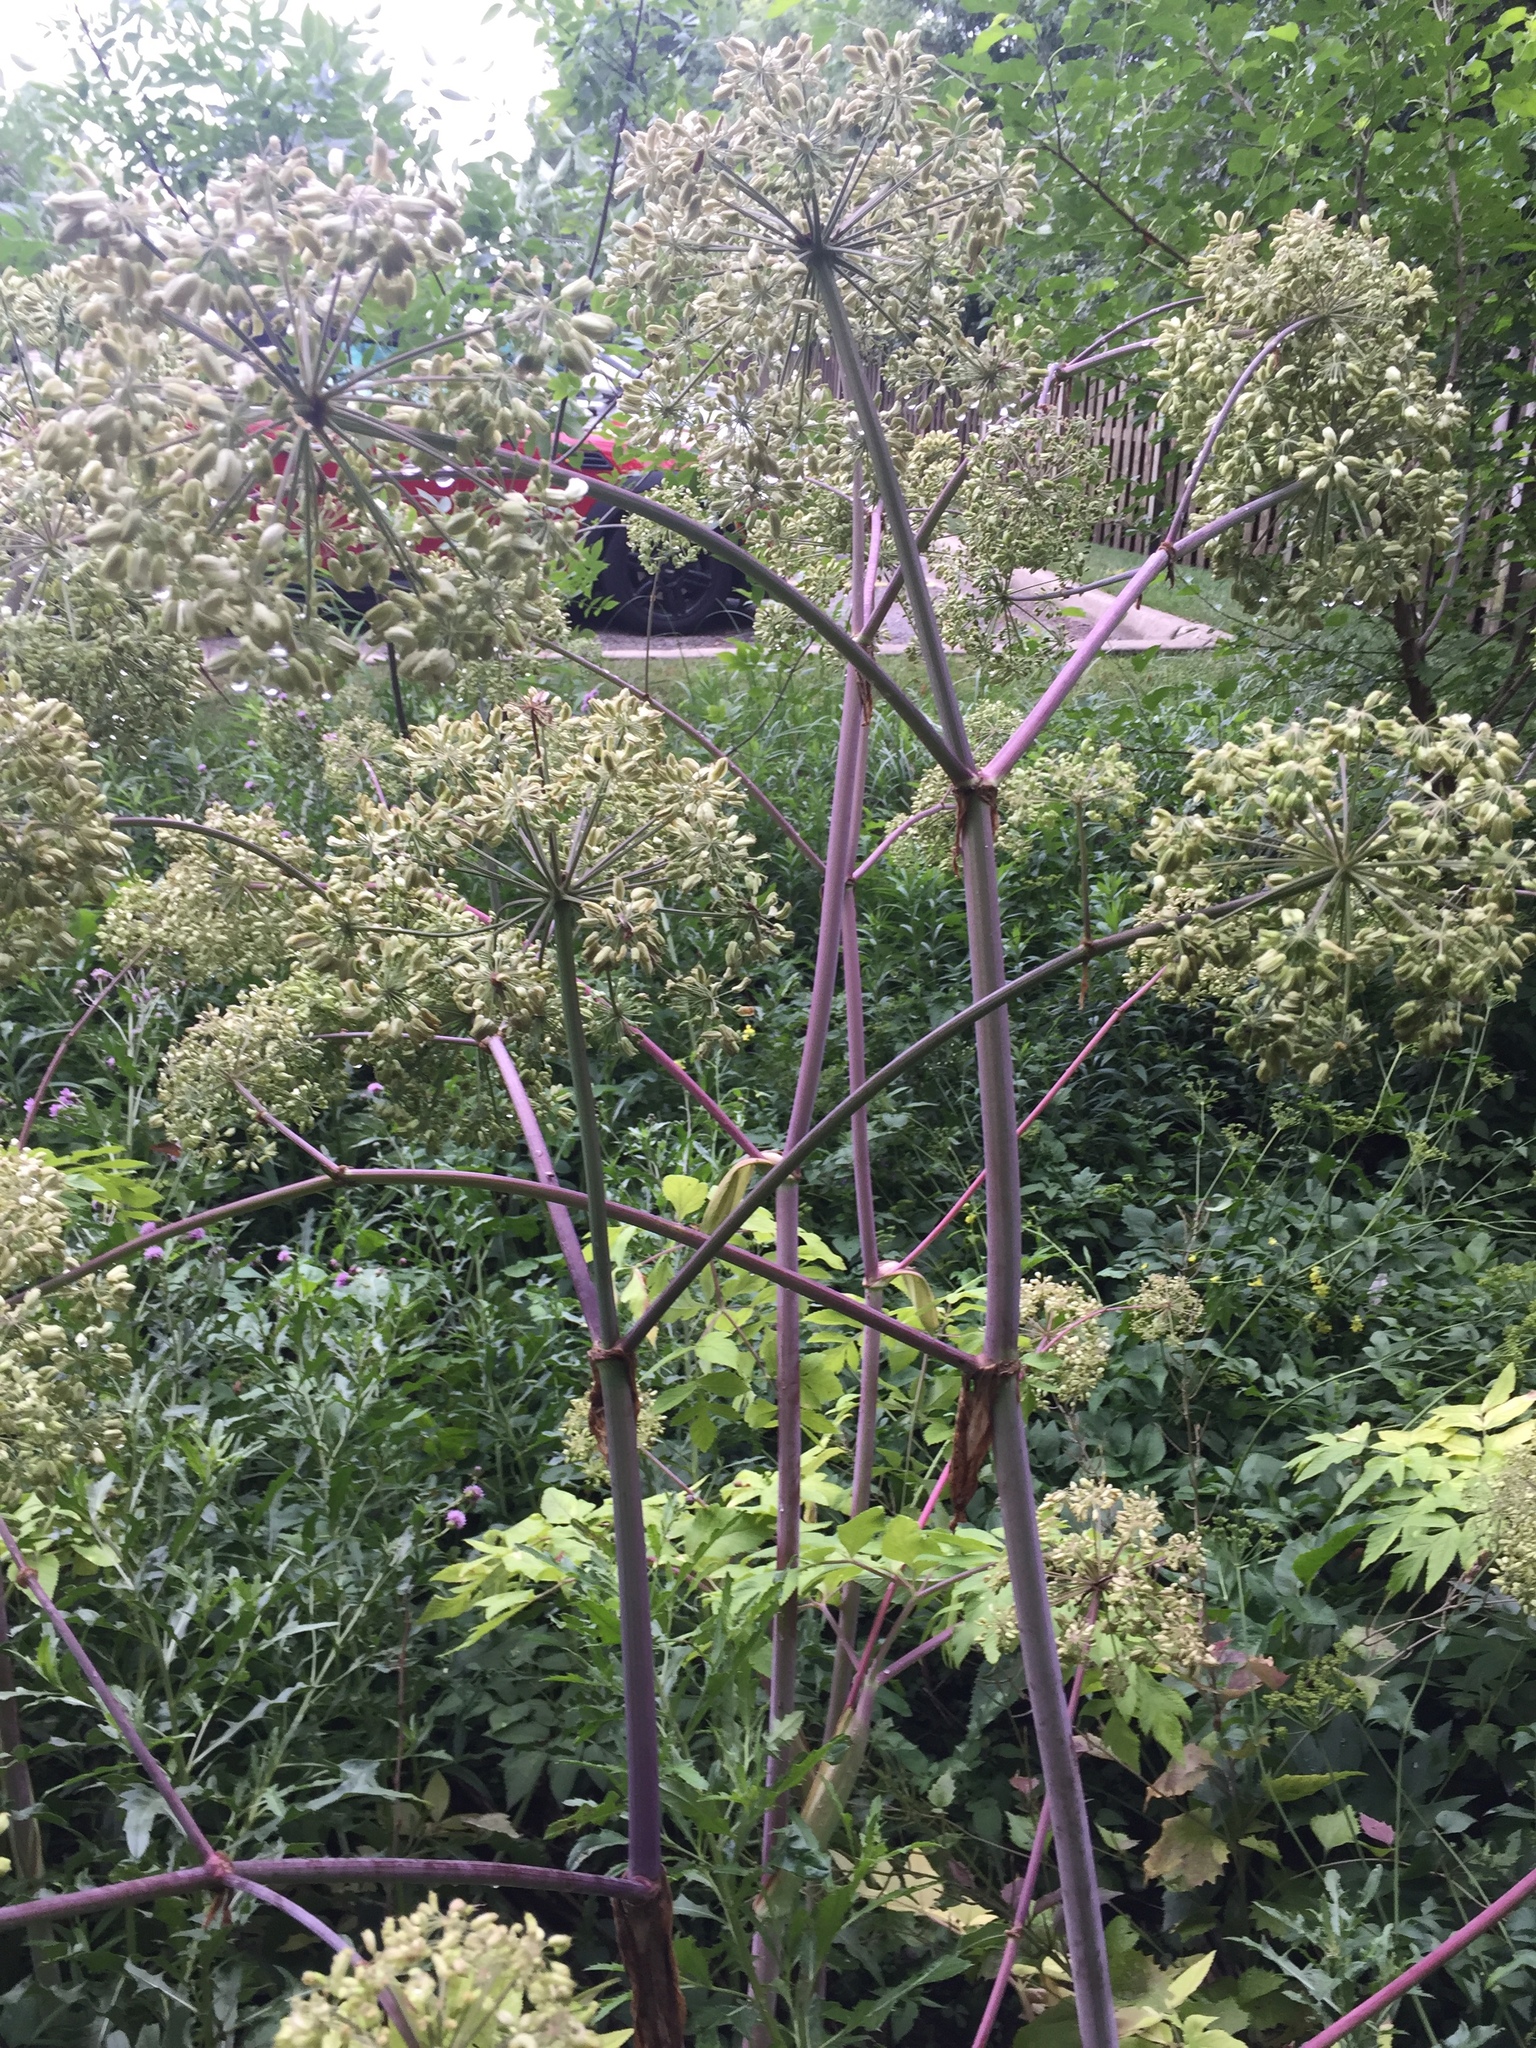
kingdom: Plantae
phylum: Tracheophyta
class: Magnoliopsida
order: Apiales
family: Apiaceae
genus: Angelica
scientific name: Angelica atropurpurea
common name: Great angelica
